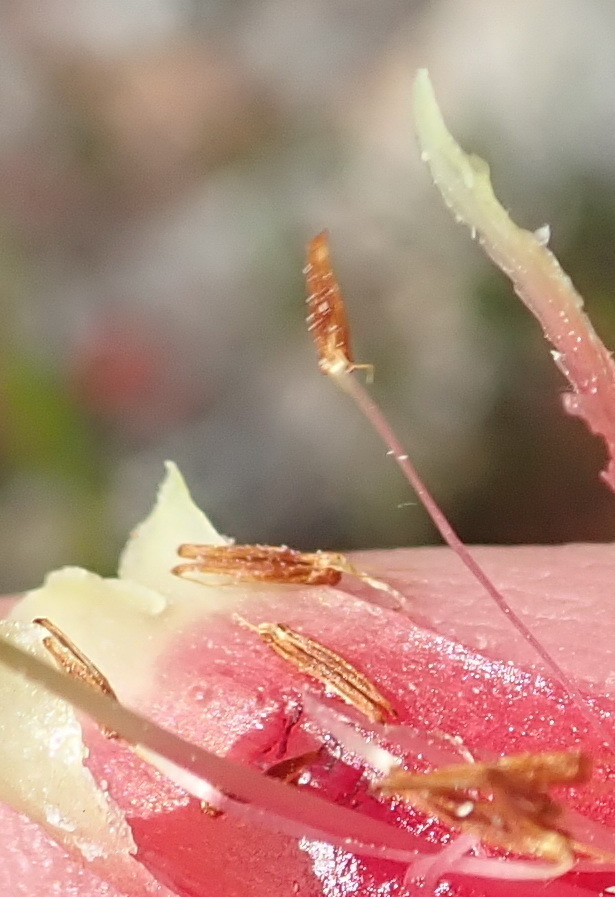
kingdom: Plantae
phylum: Tracheophyta
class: Magnoliopsida
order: Ericales
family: Ericaceae
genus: Erica
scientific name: Erica discolor
